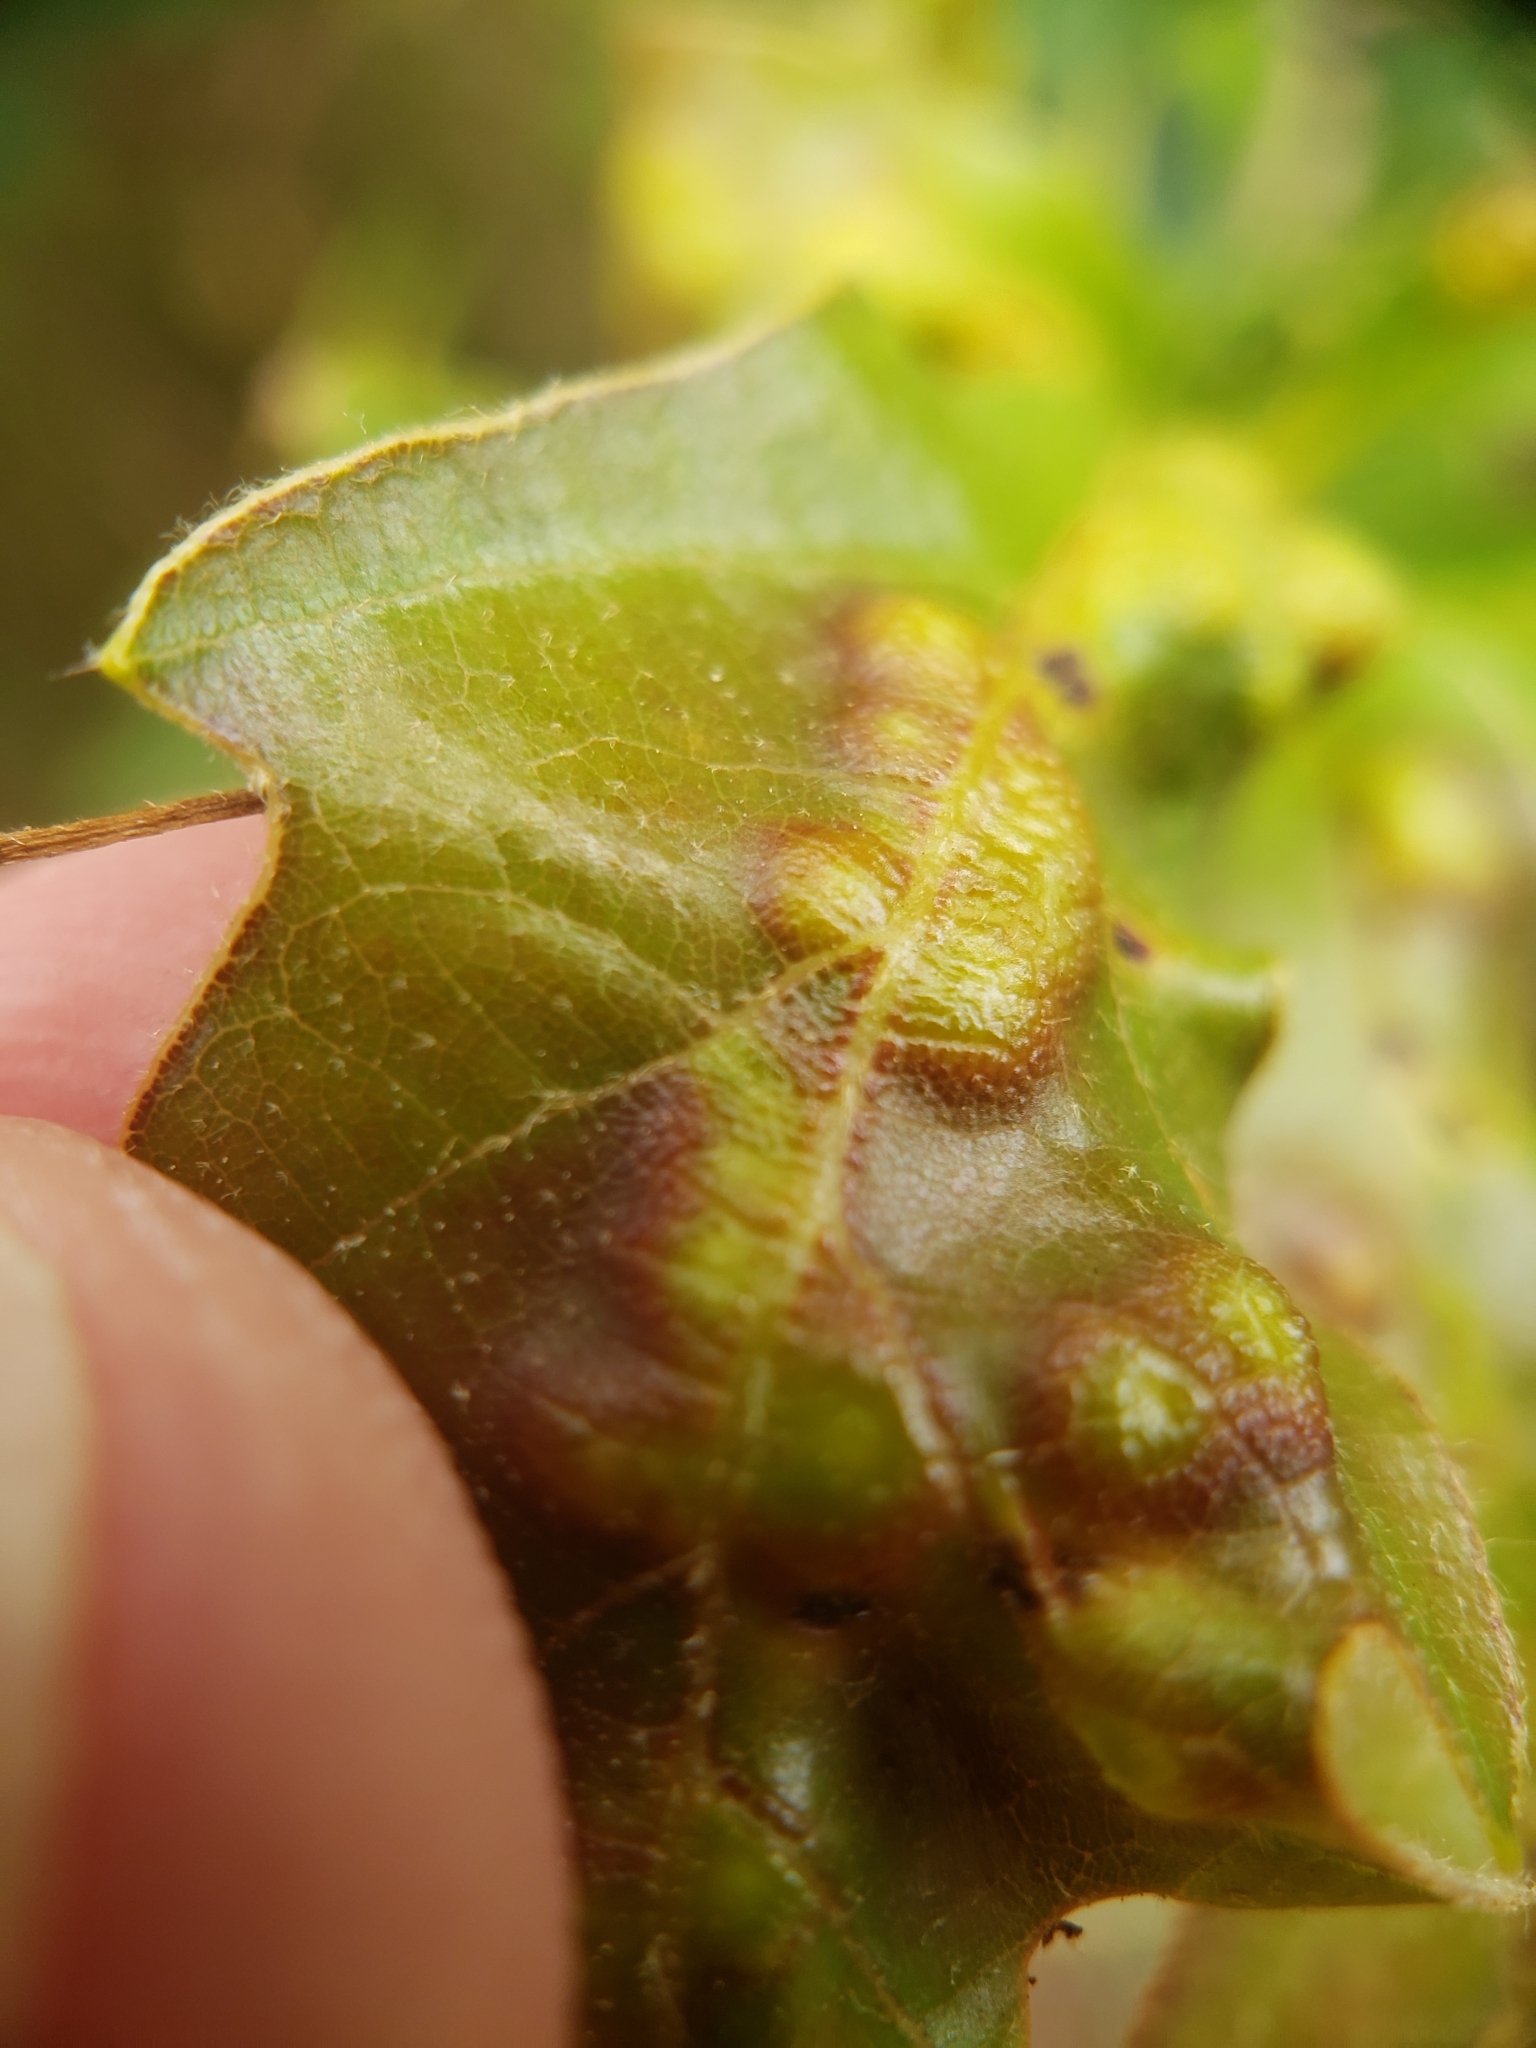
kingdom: Animalia
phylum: Arthropoda
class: Insecta
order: Hymenoptera
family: Cynipidae
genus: Neuroterus
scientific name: Neuroterus quercusverrucarum
